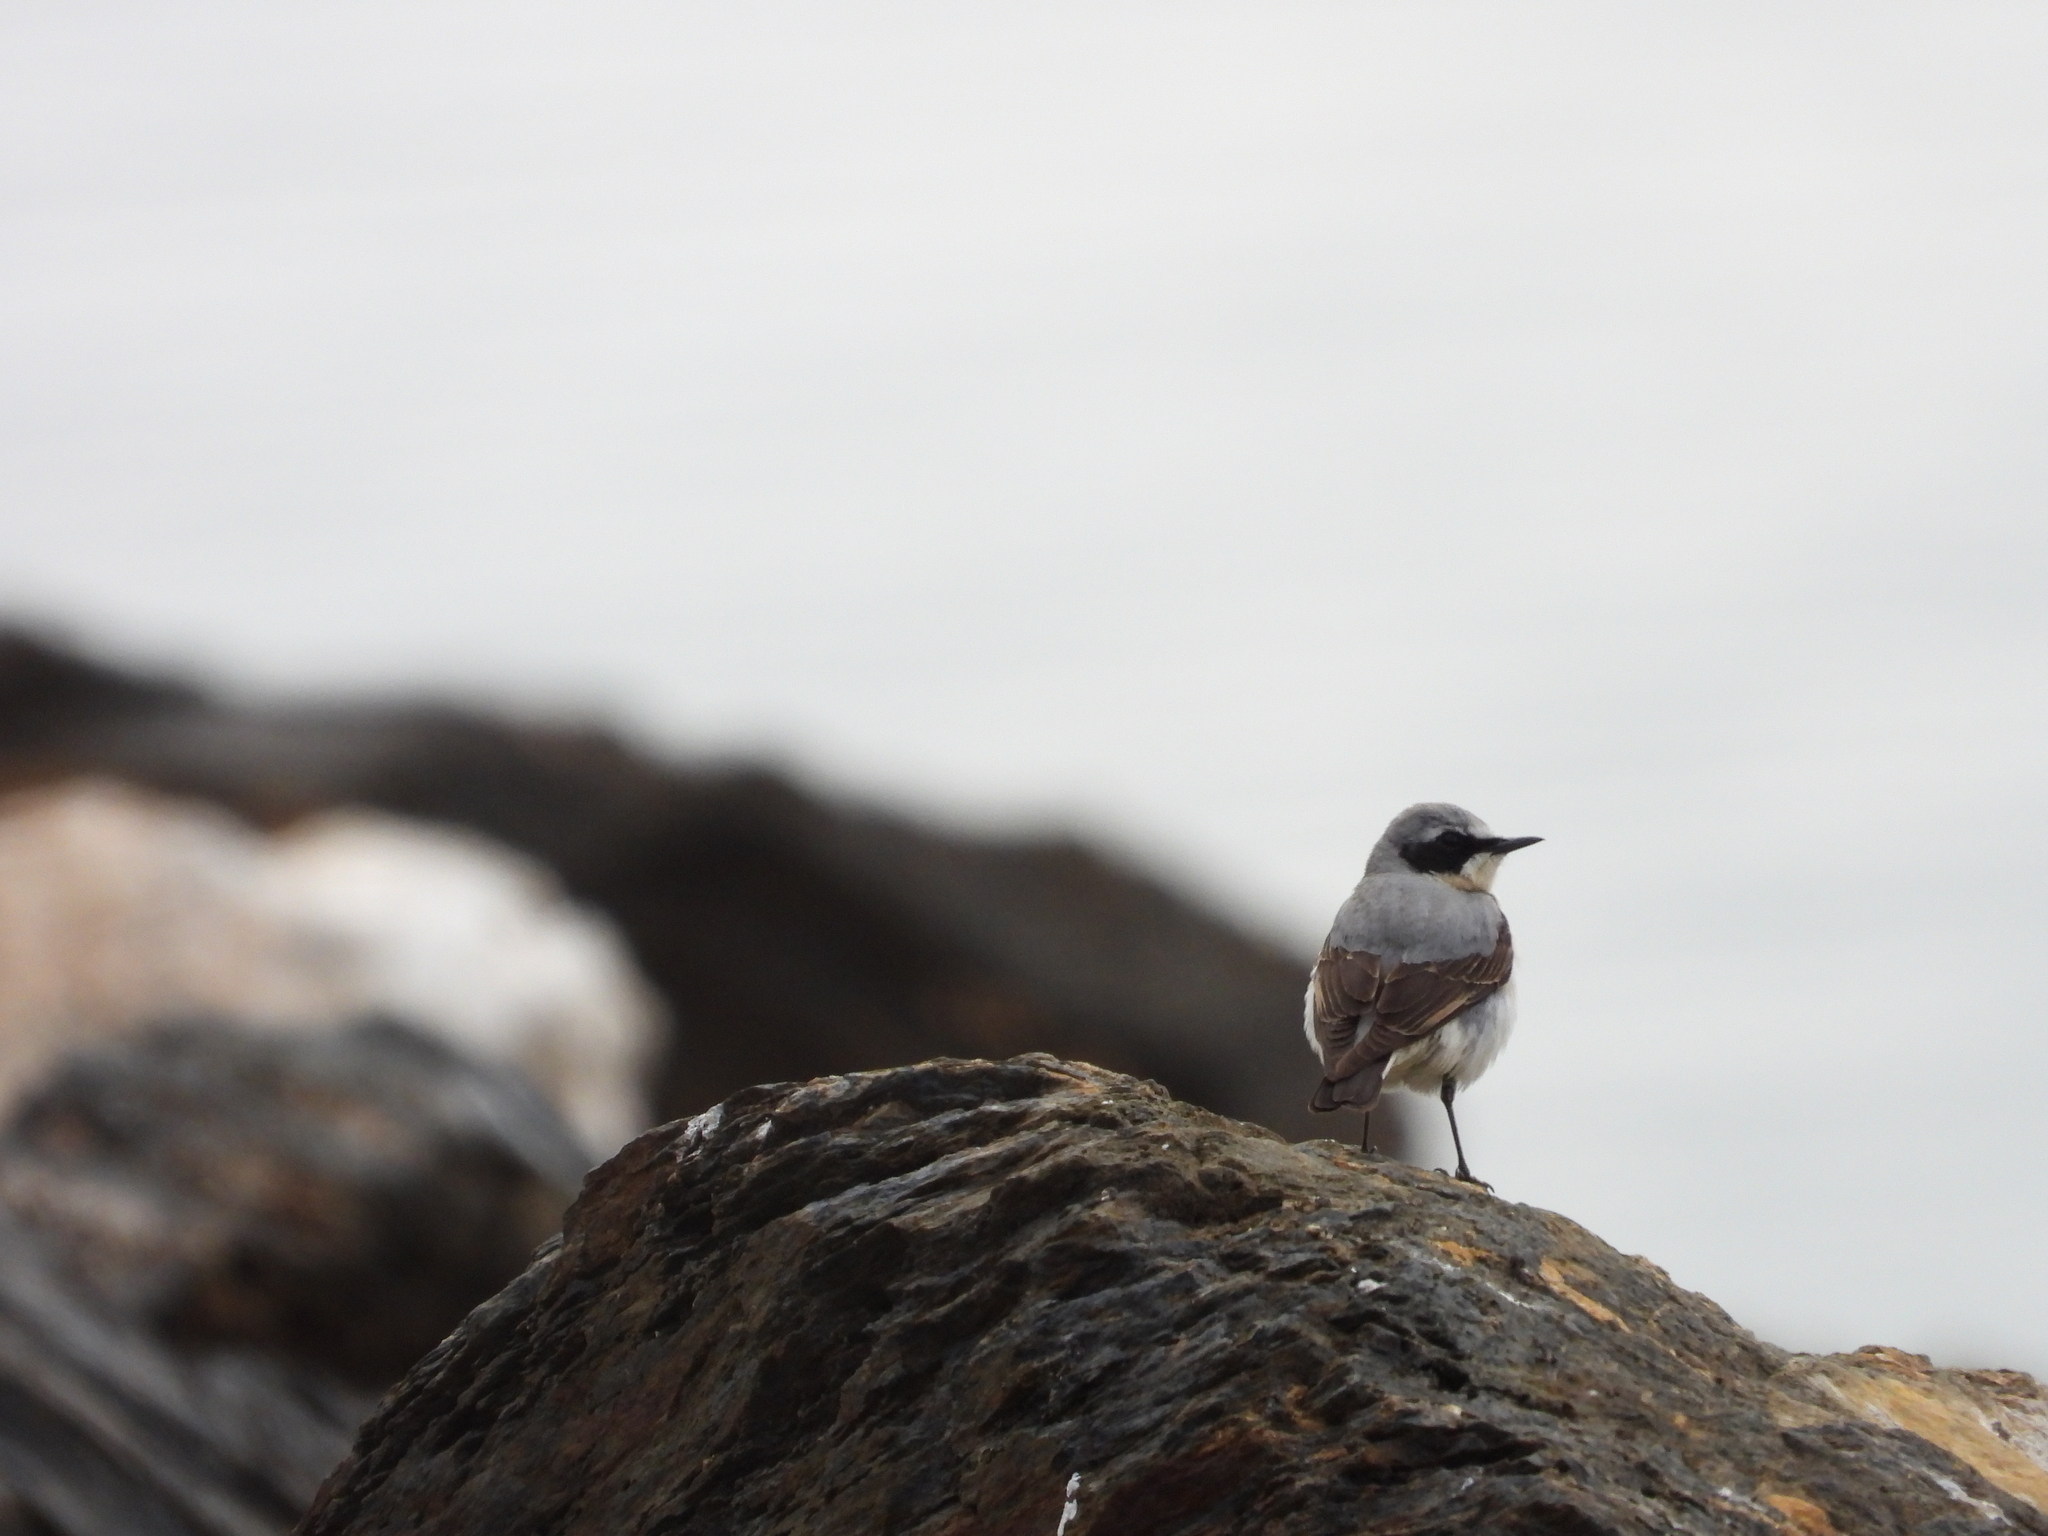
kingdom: Animalia
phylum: Chordata
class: Aves
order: Passeriformes
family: Muscicapidae
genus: Oenanthe
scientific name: Oenanthe oenanthe
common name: Northern wheatear
